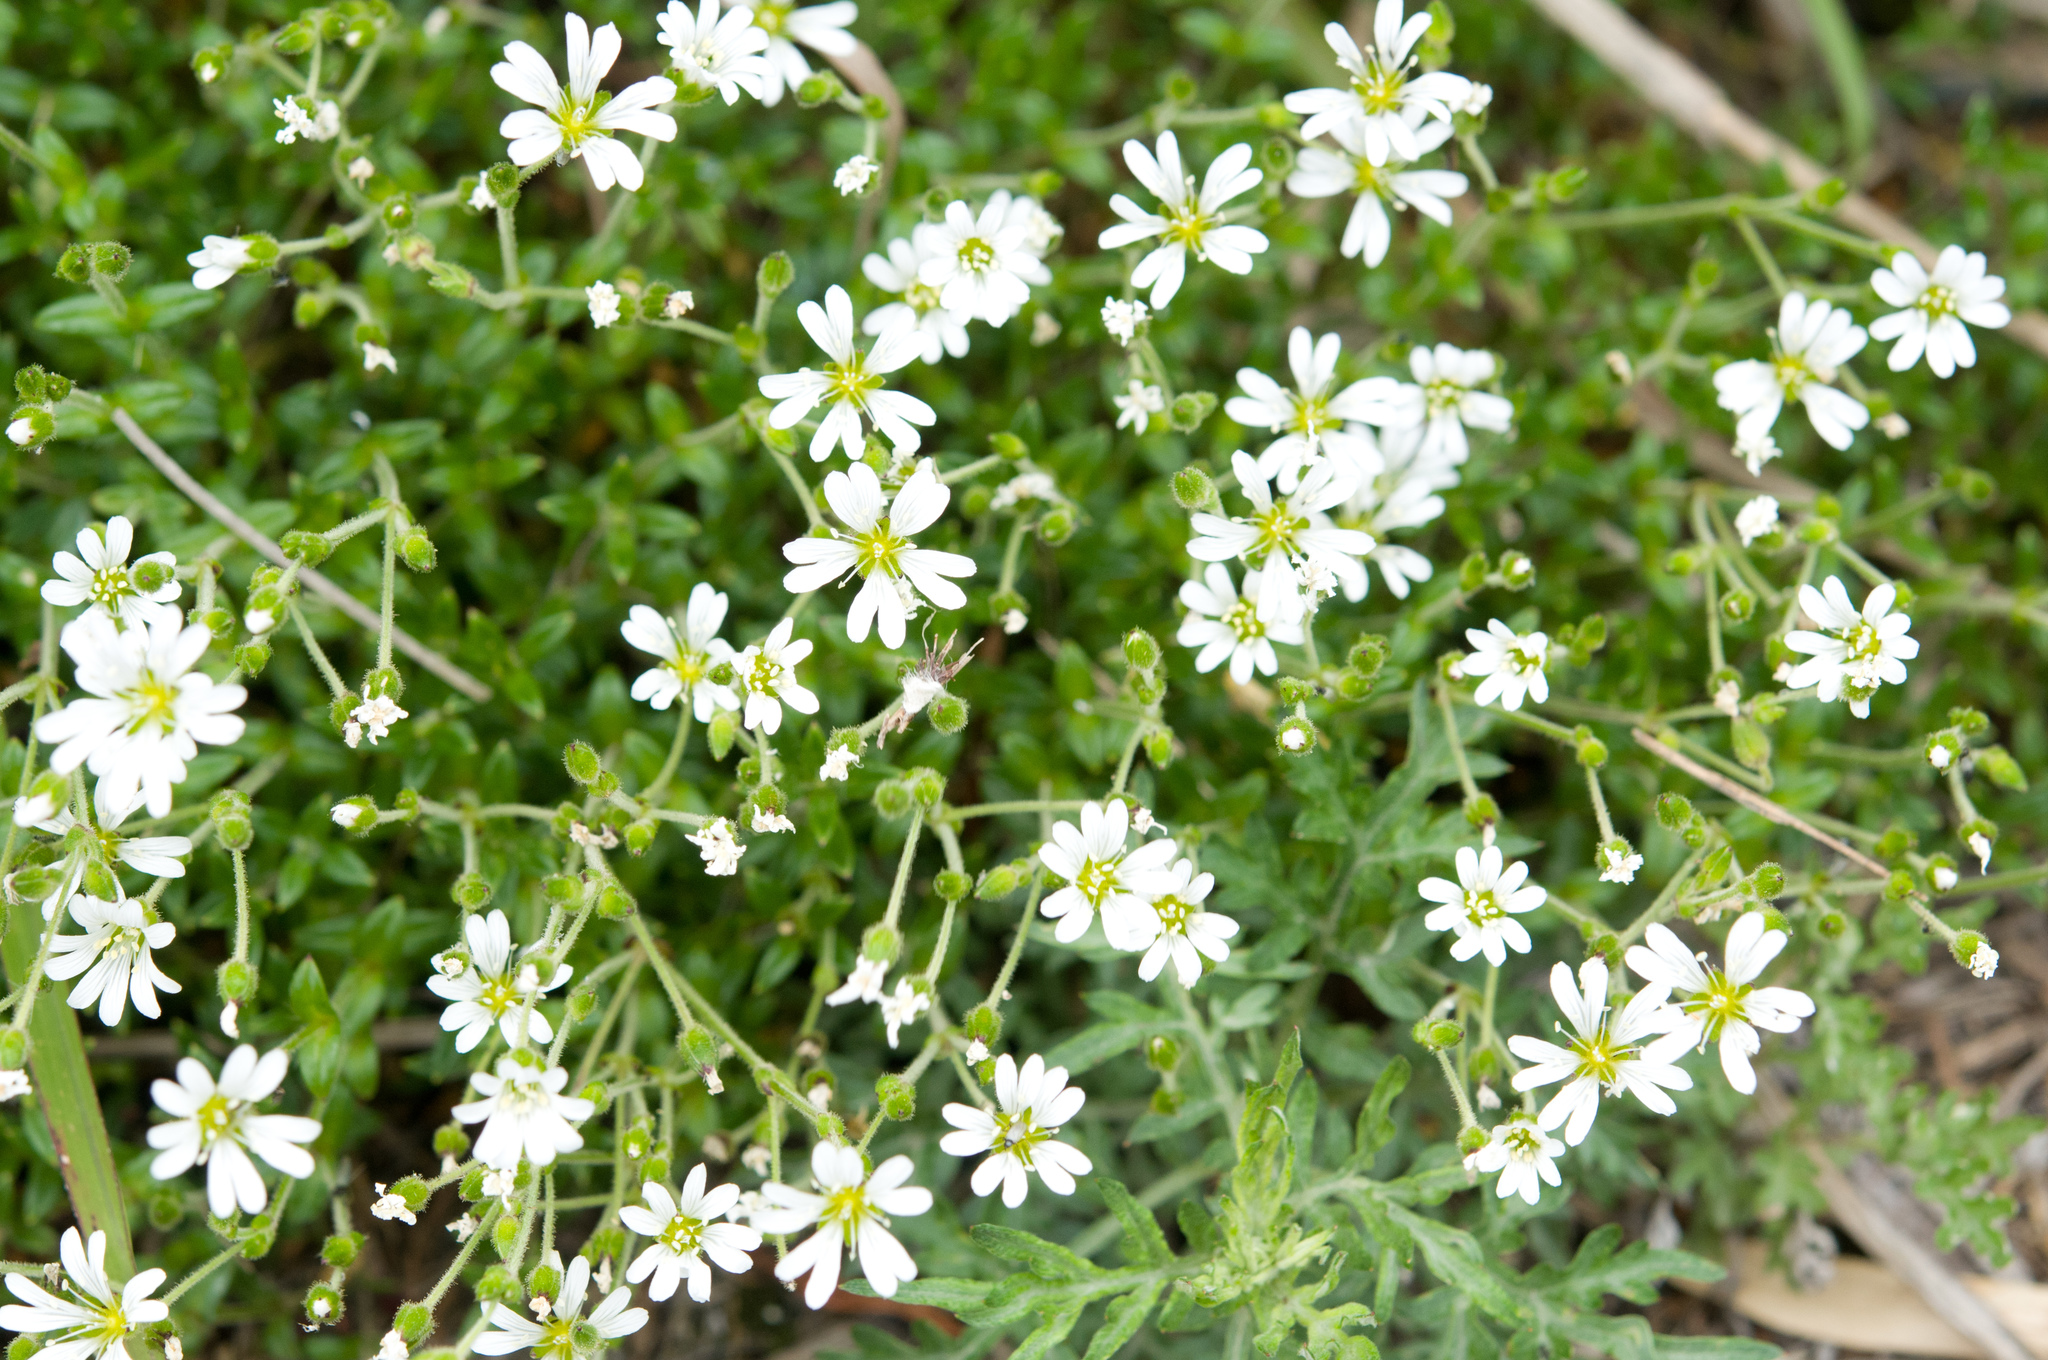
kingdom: Plantae
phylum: Tracheophyta
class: Magnoliopsida
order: Caryophyllales
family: Caryophyllaceae
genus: Cerastium
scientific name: Cerastium morrisonense
